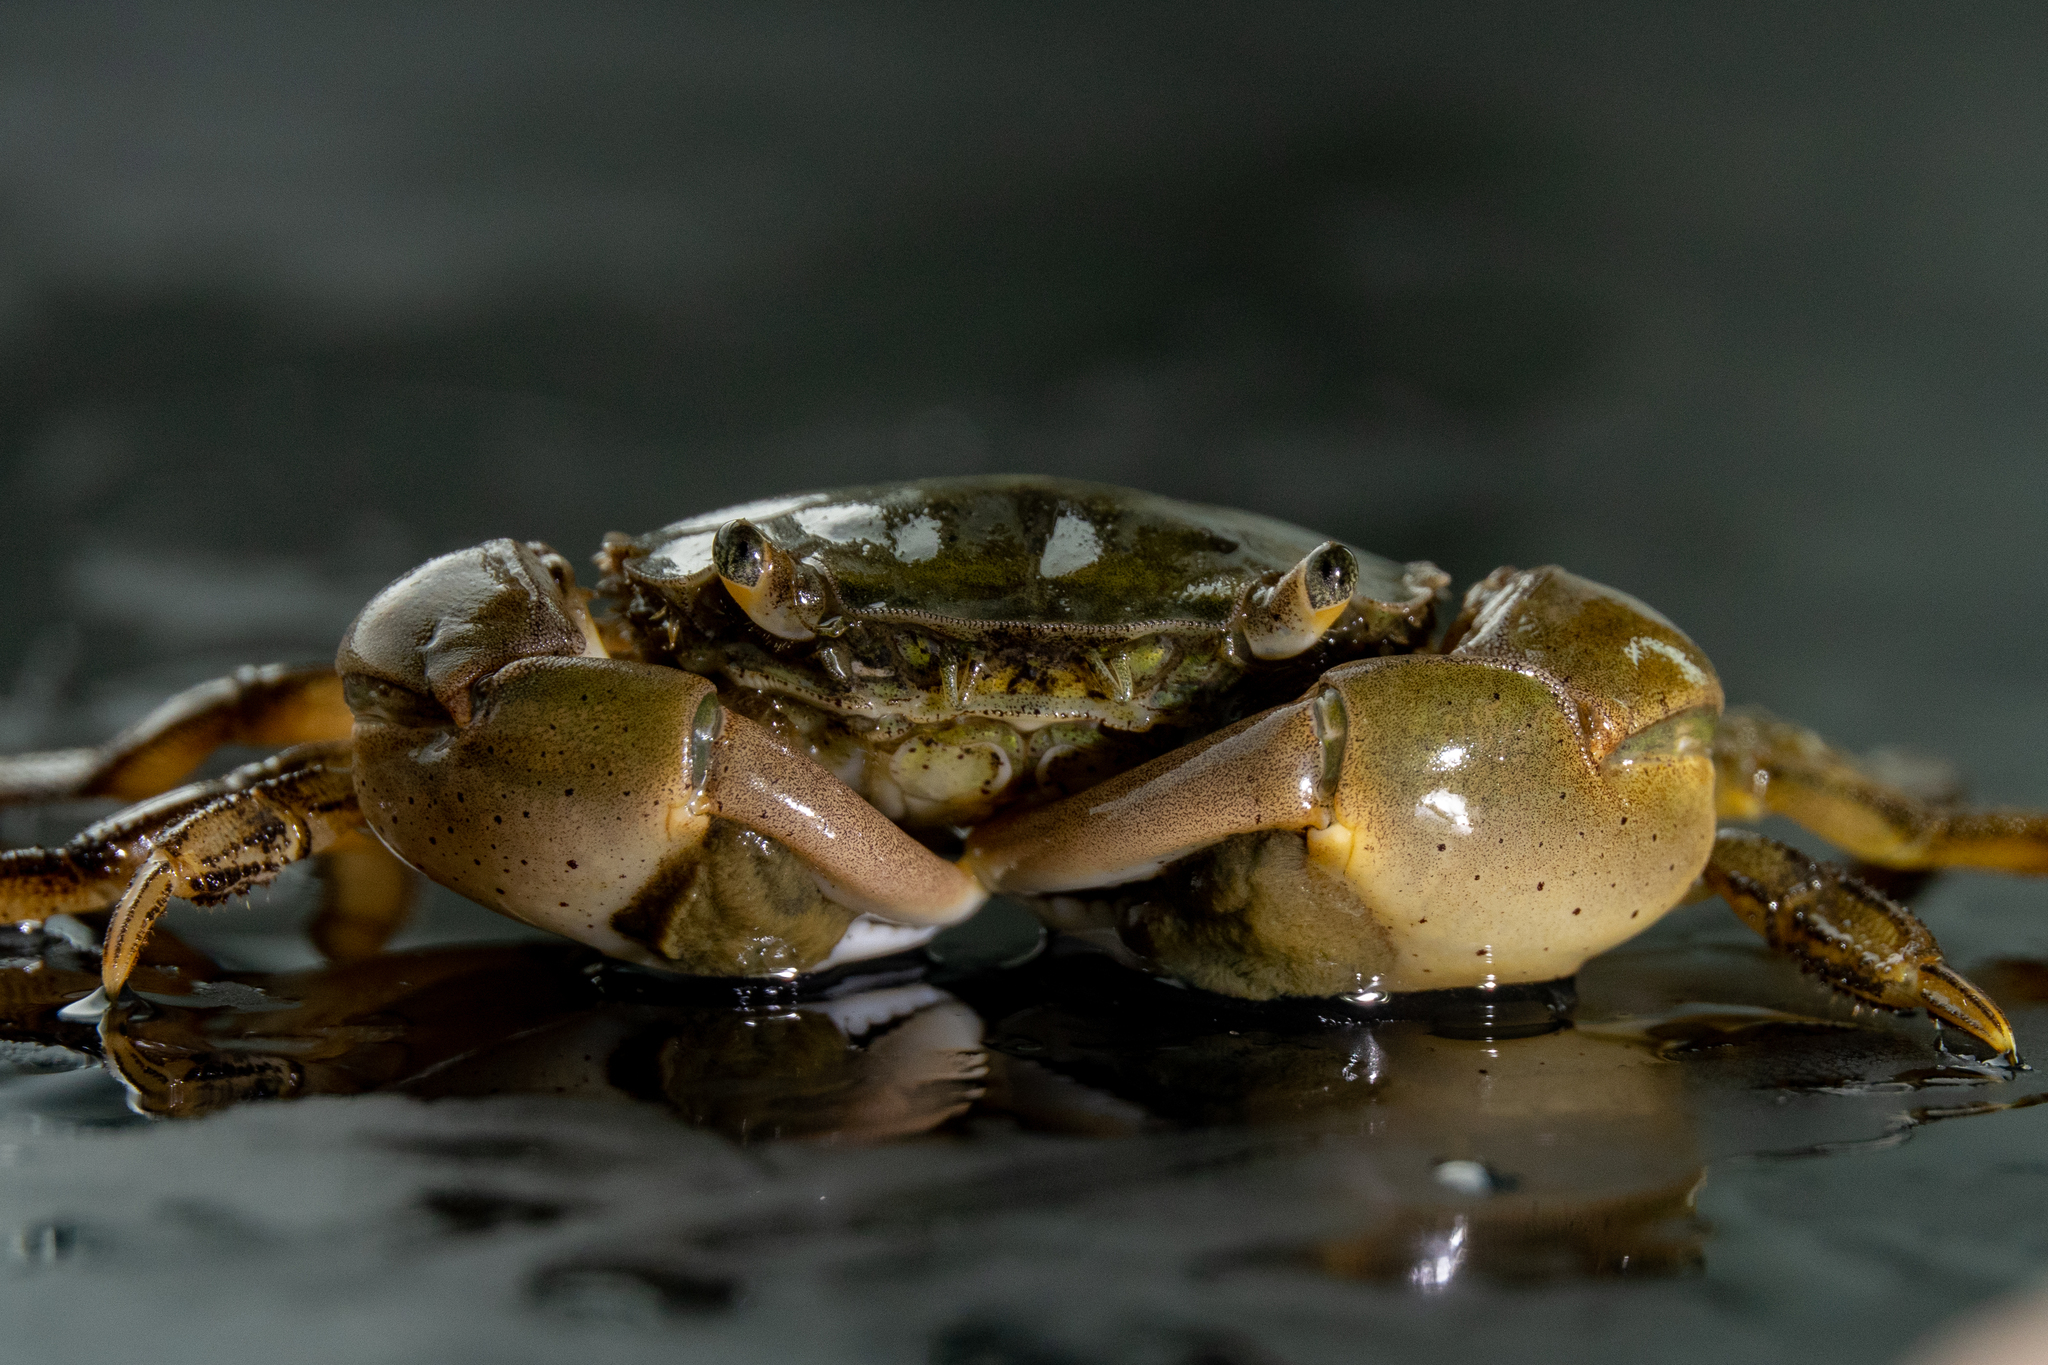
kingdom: Animalia
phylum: Arthropoda
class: Malacostraca
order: Decapoda
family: Varunidae
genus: Hemigrapsus
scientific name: Hemigrapsus takanoi
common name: Asian brush crab
